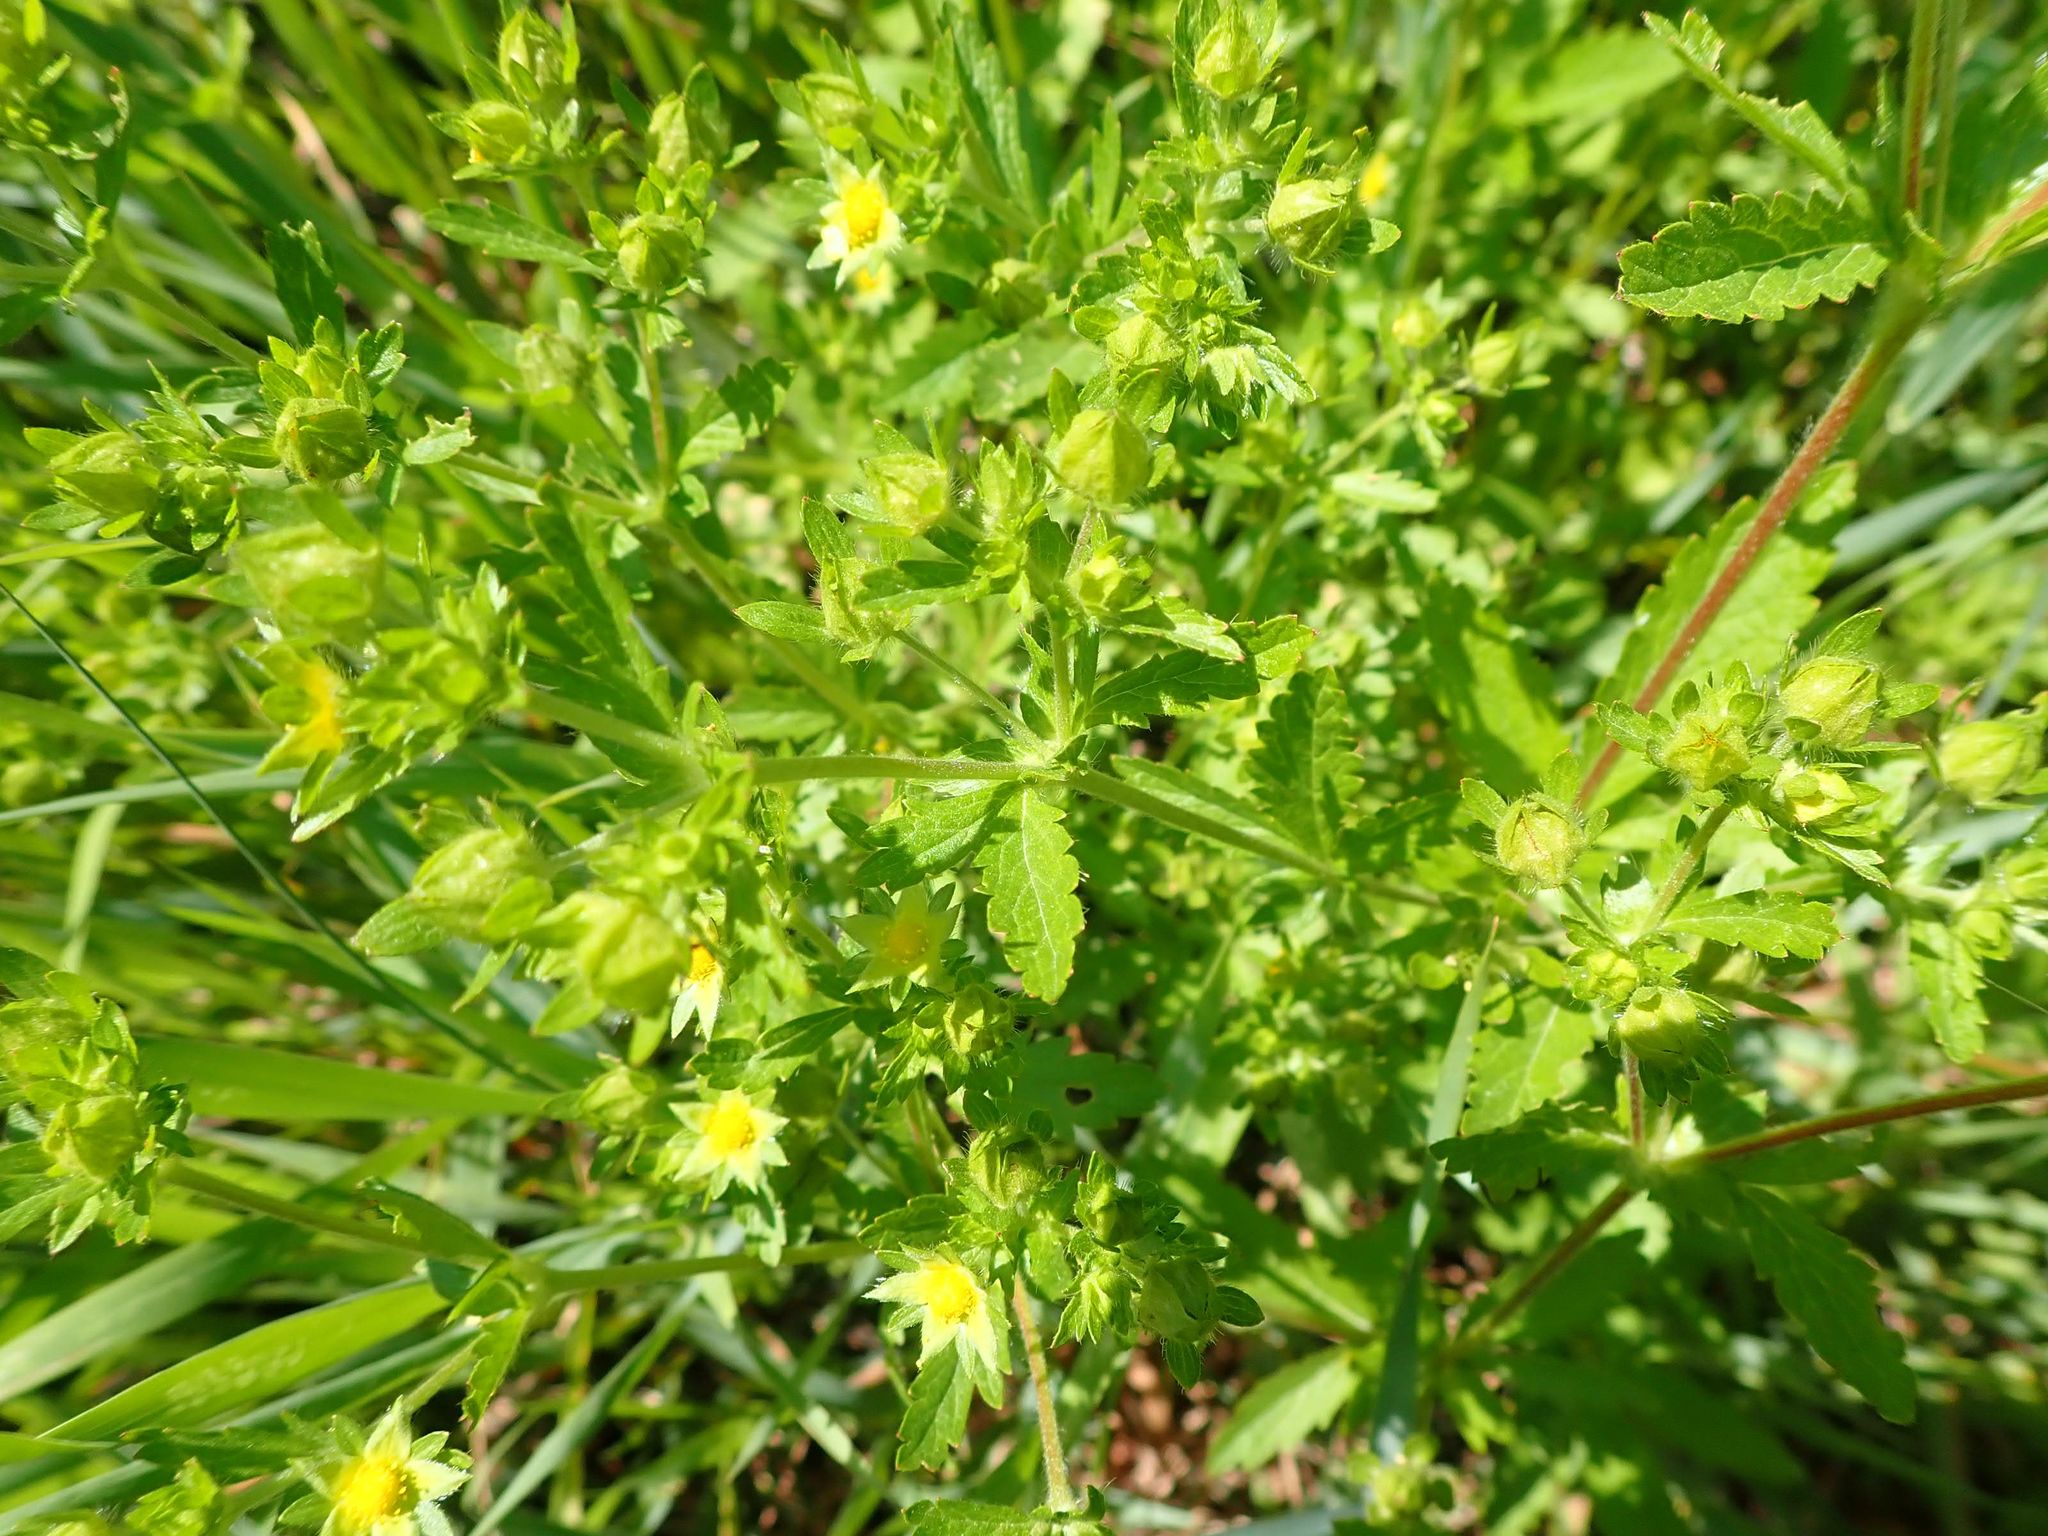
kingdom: Plantae
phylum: Tracheophyta
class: Magnoliopsida
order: Rosales
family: Rosaceae
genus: Potentilla
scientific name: Potentilla norvegica
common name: Ternate-leaved cinquefoil
